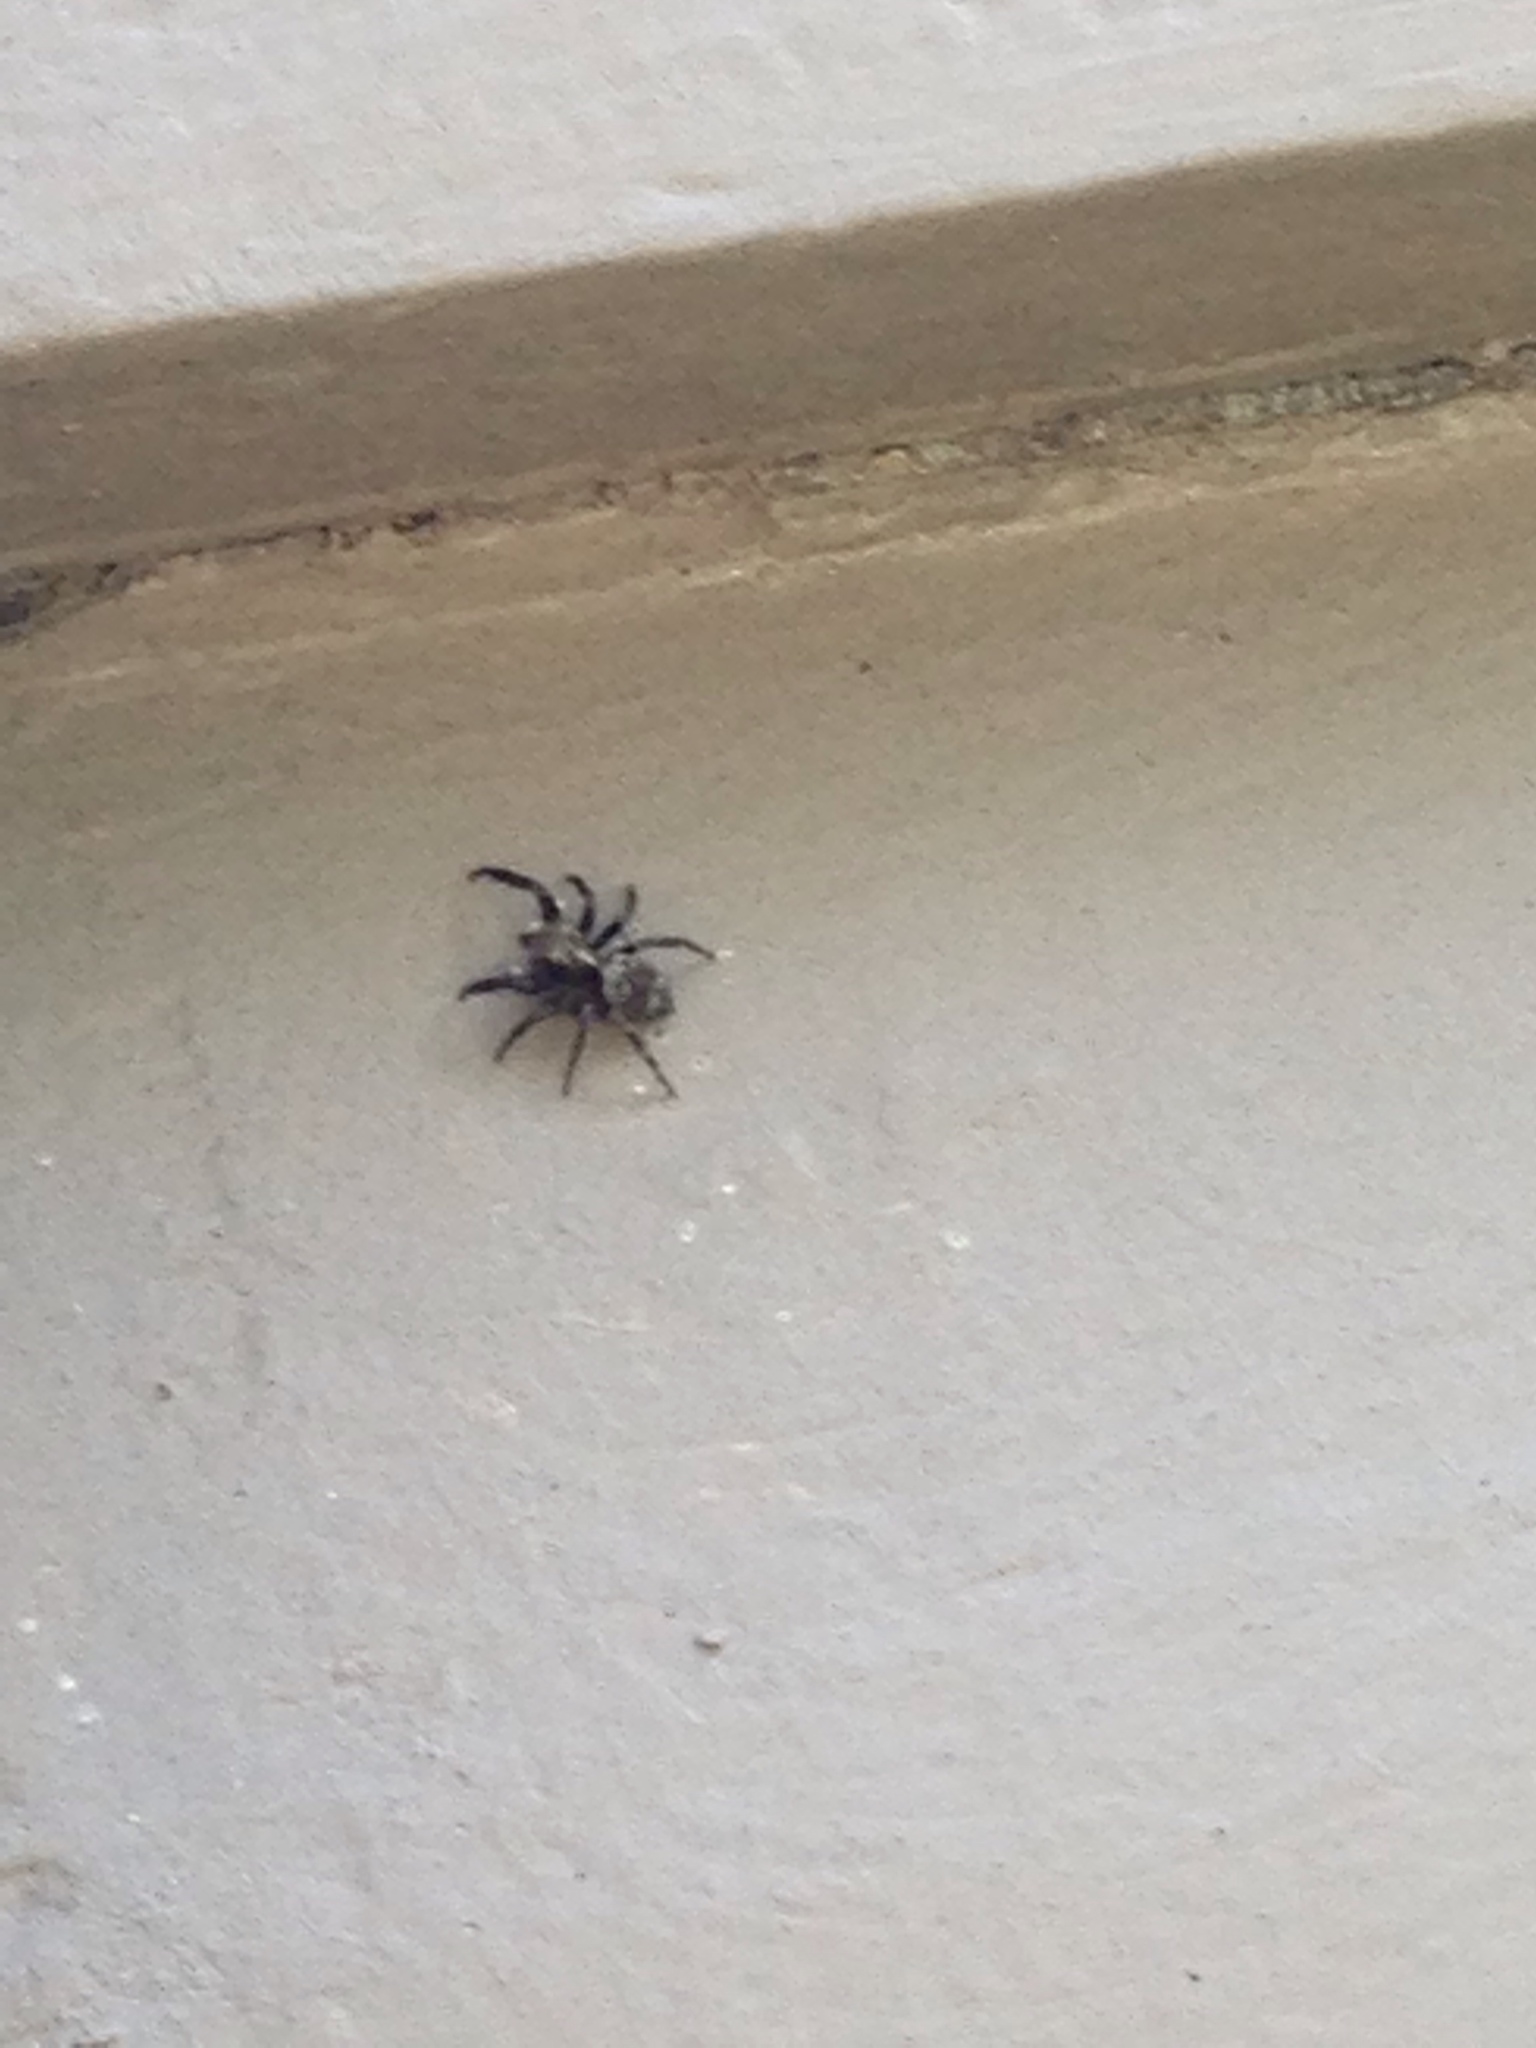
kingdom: Animalia
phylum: Arthropoda
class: Arachnida
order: Araneae
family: Salticidae
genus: Pseudeuophrys
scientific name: Pseudeuophrys erratica
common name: Jumping spider
